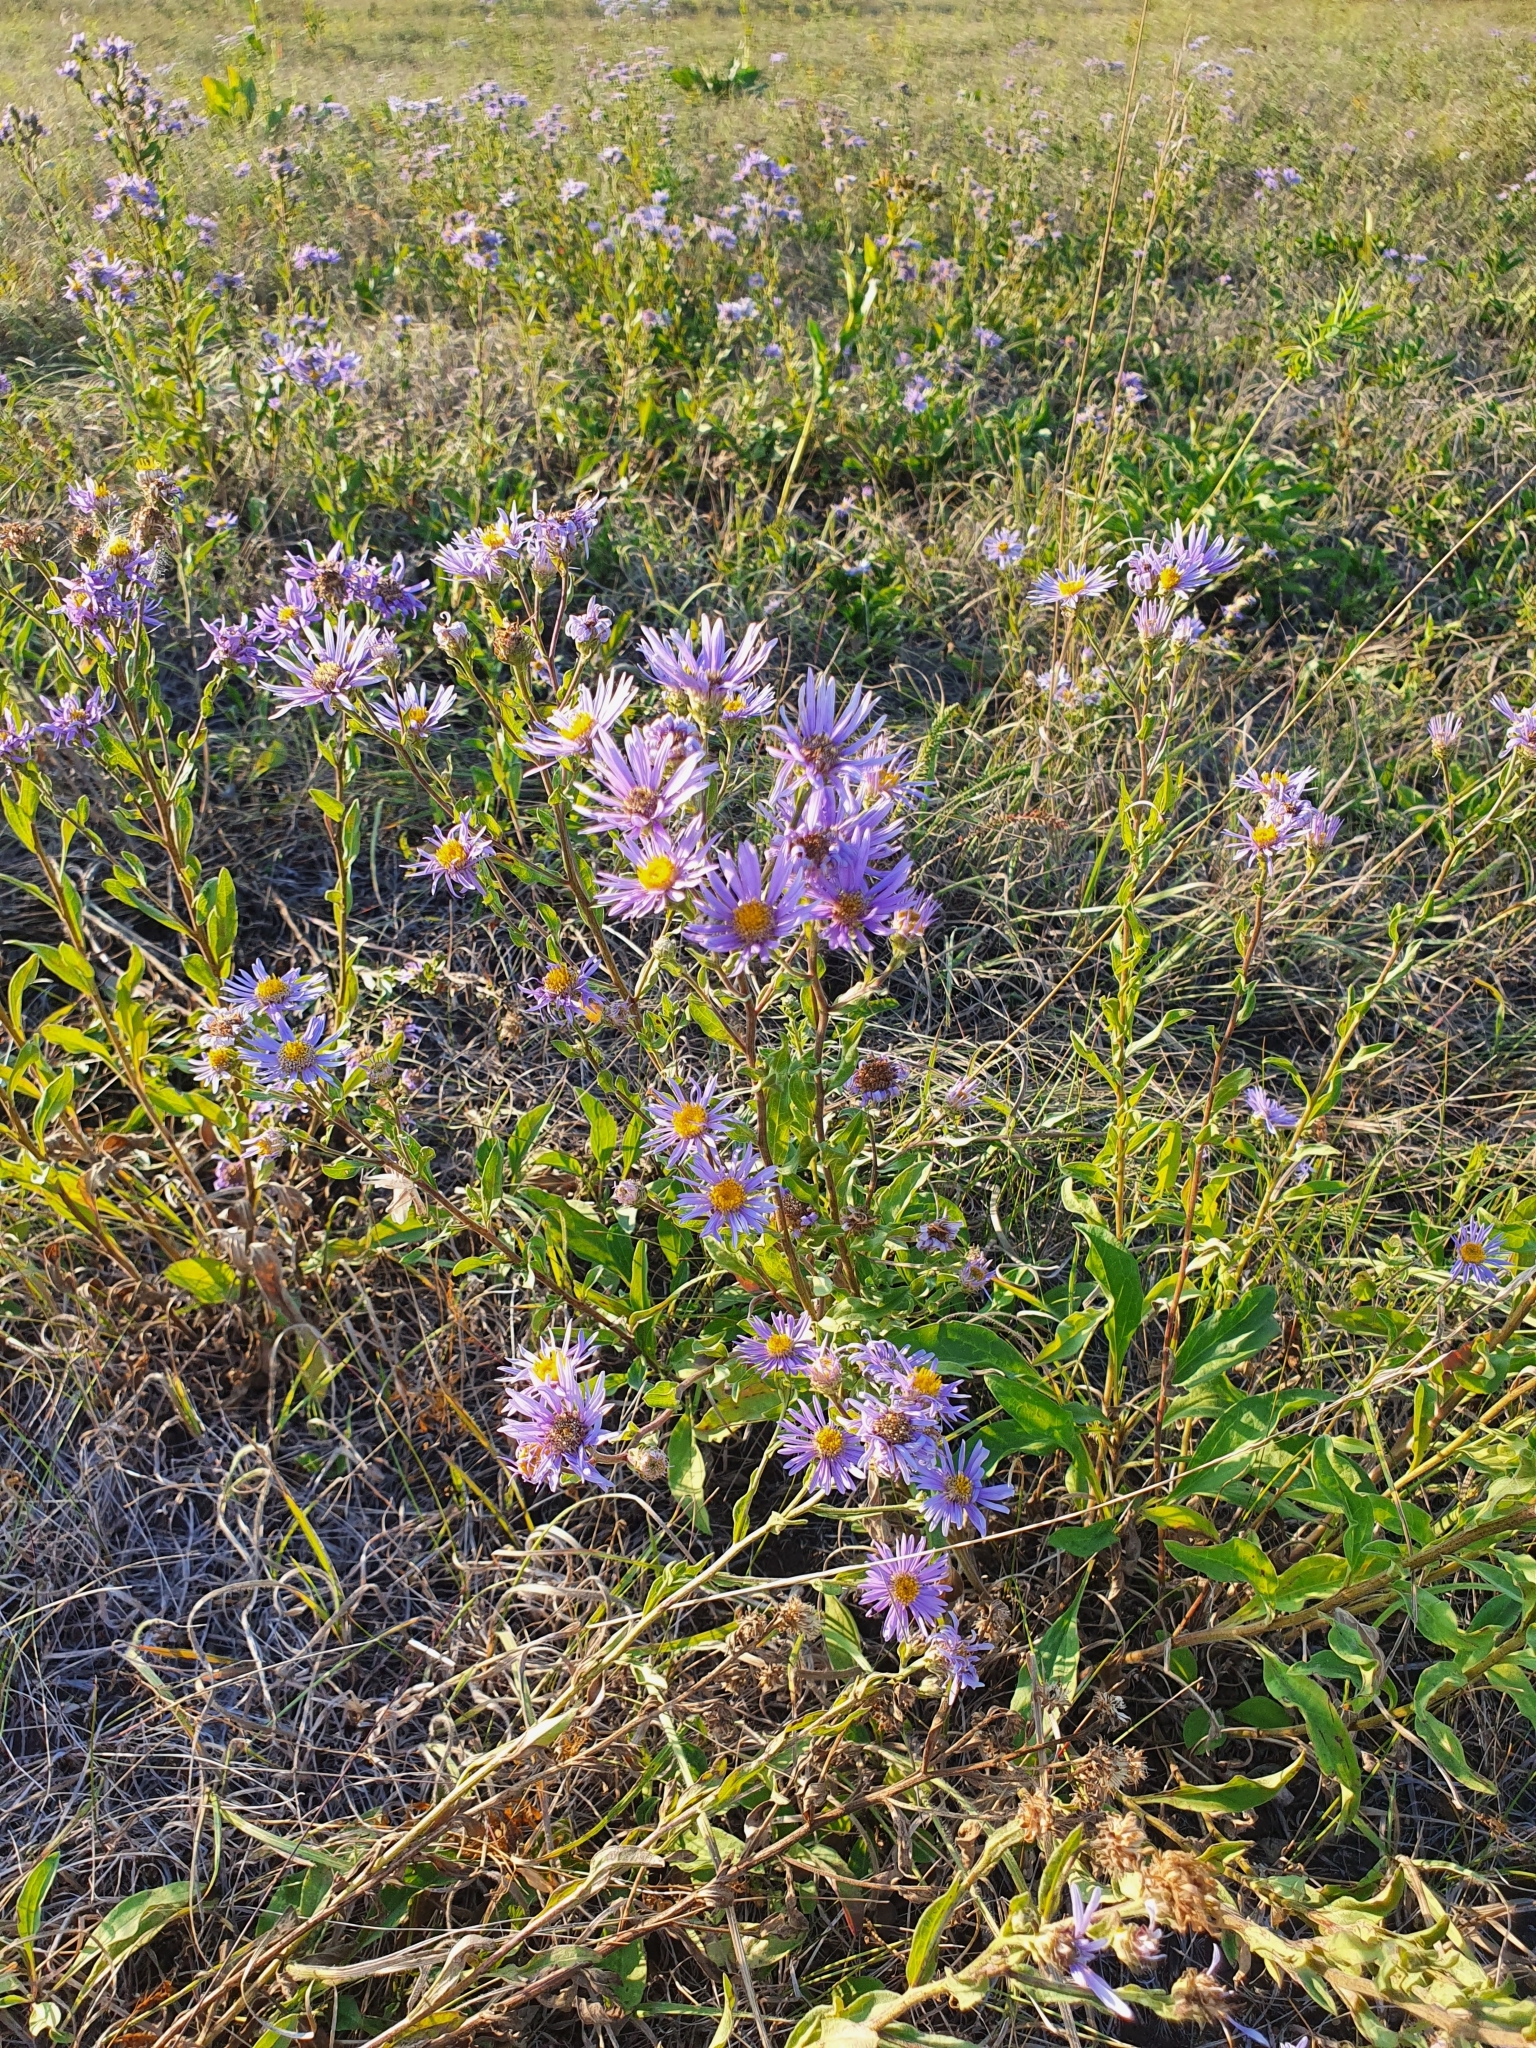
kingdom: Plantae
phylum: Tracheophyta
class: Magnoliopsida
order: Asterales
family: Asteraceae
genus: Aster
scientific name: Aster amellus
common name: European michaelmas daisy
